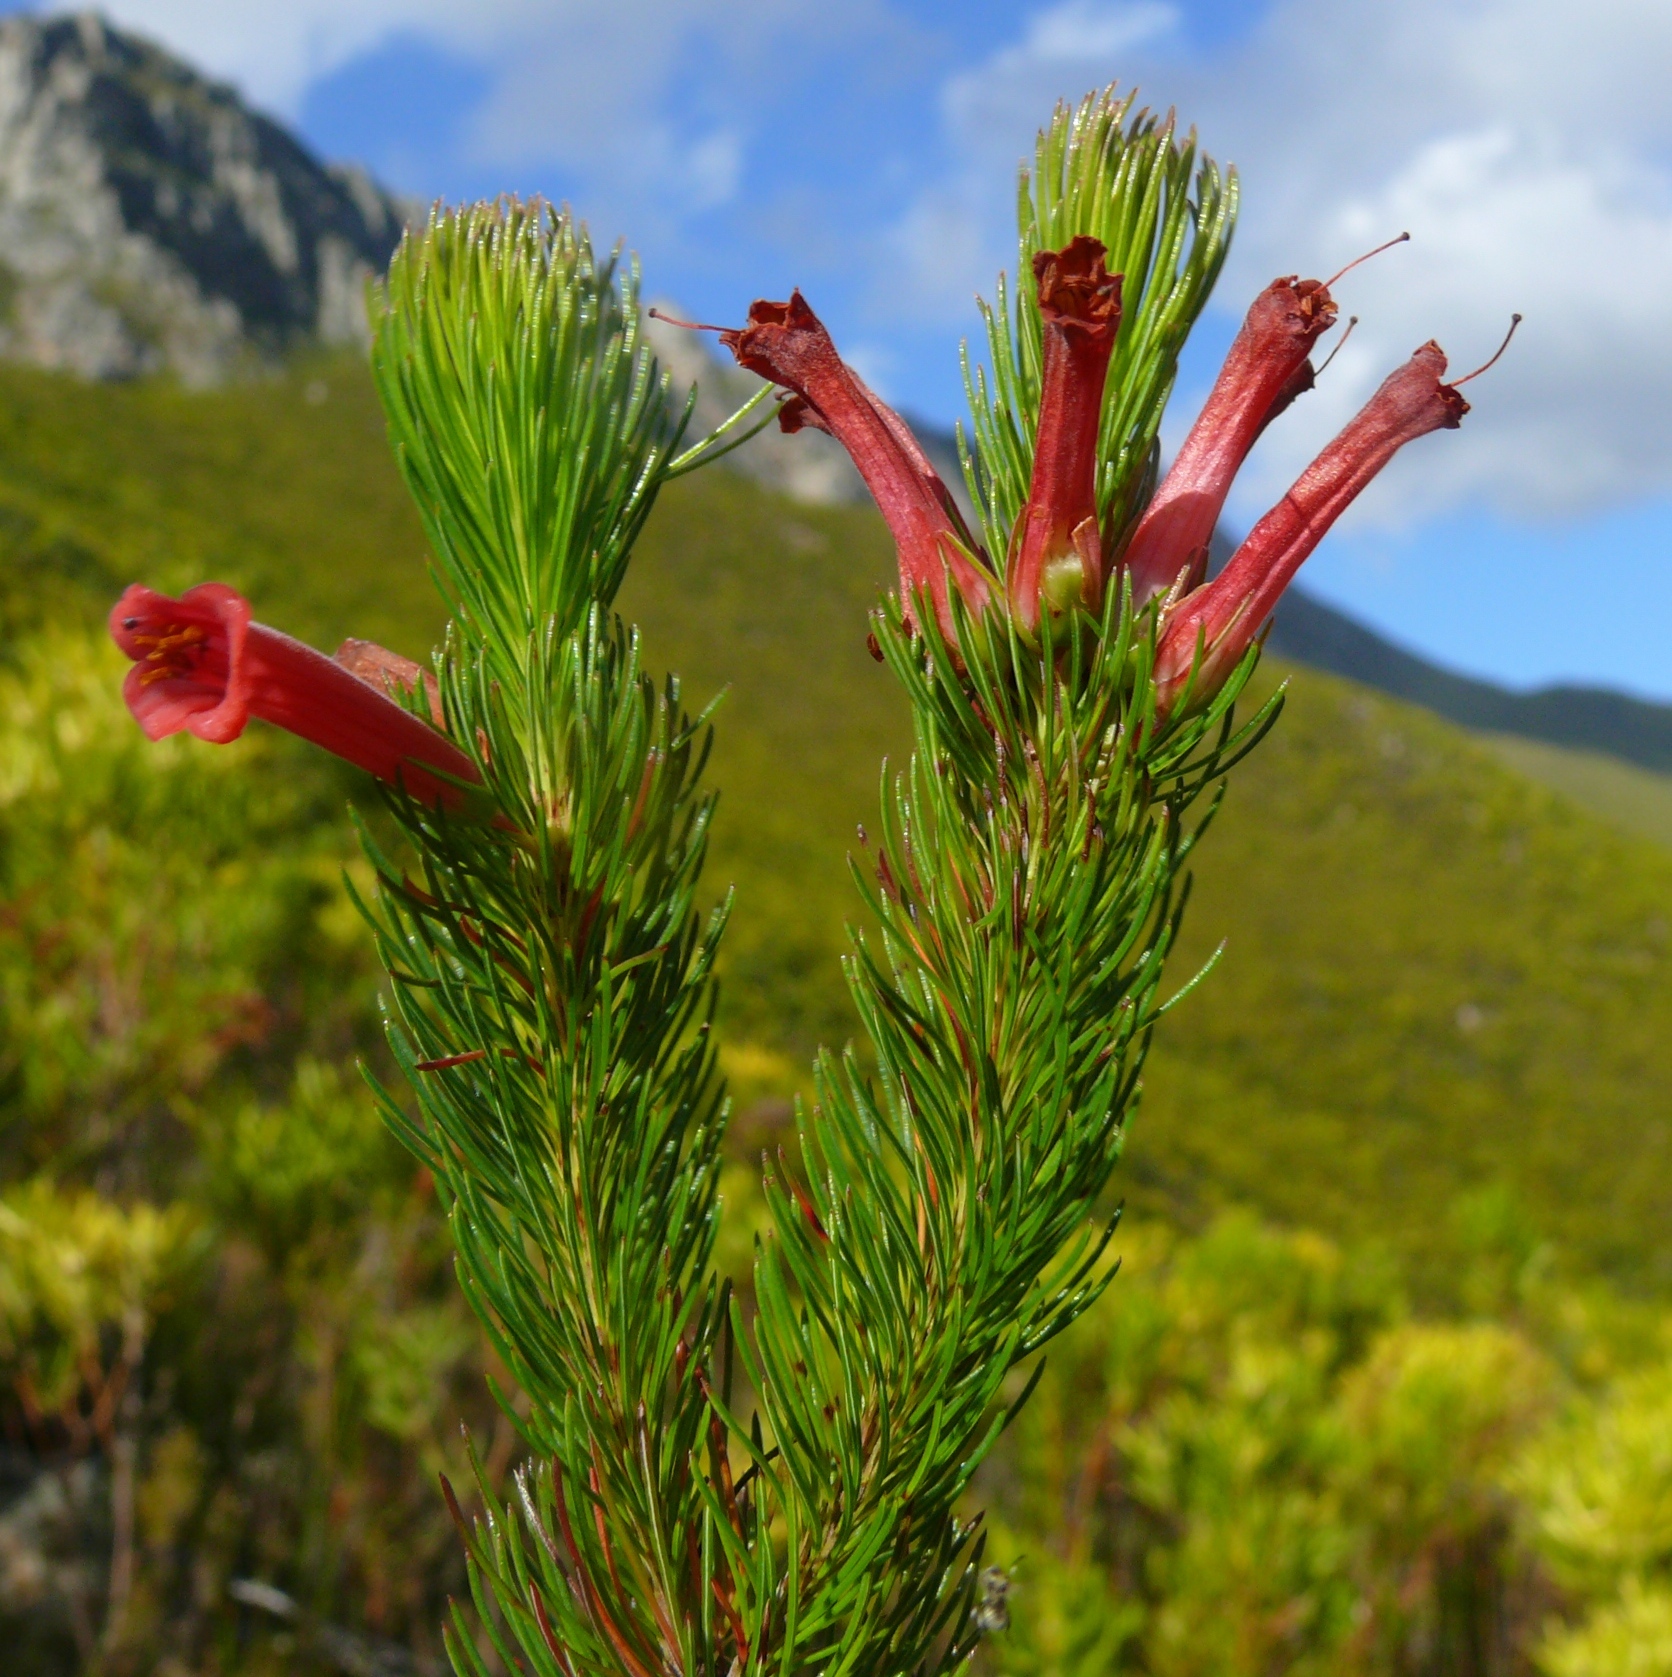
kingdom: Plantae
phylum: Tracheophyta
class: Magnoliopsida
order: Ericales
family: Ericaceae
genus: Erica
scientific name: Erica vestita
